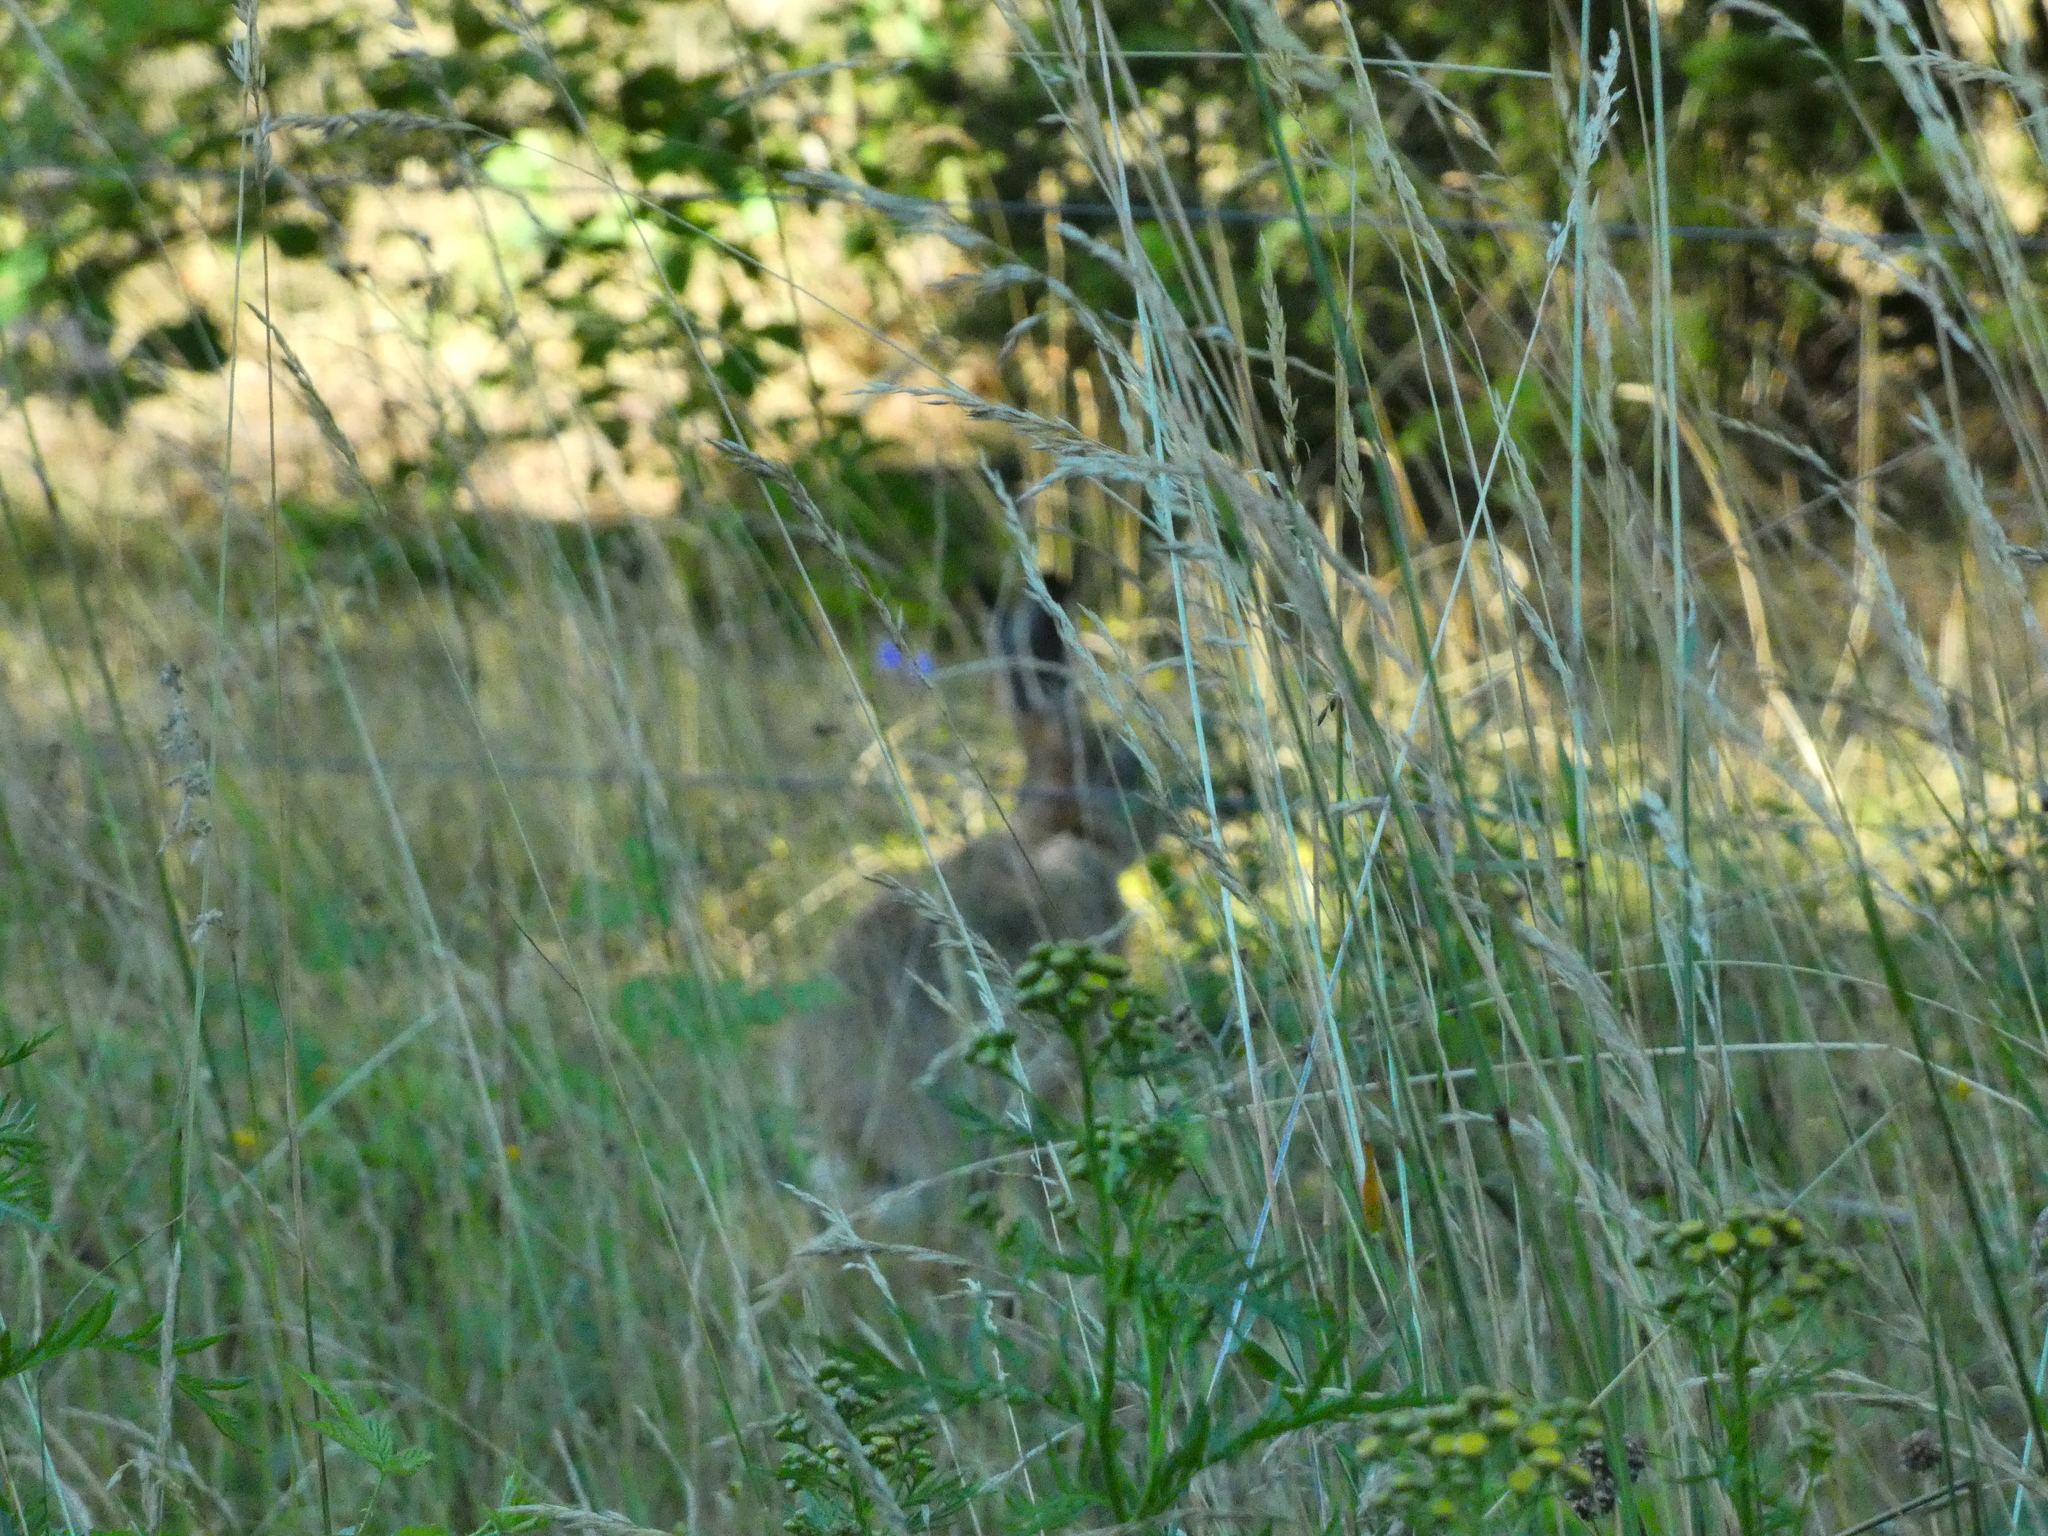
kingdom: Animalia
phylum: Chordata
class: Mammalia
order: Lagomorpha
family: Leporidae
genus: Lepus
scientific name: Lepus europaeus
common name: European hare
